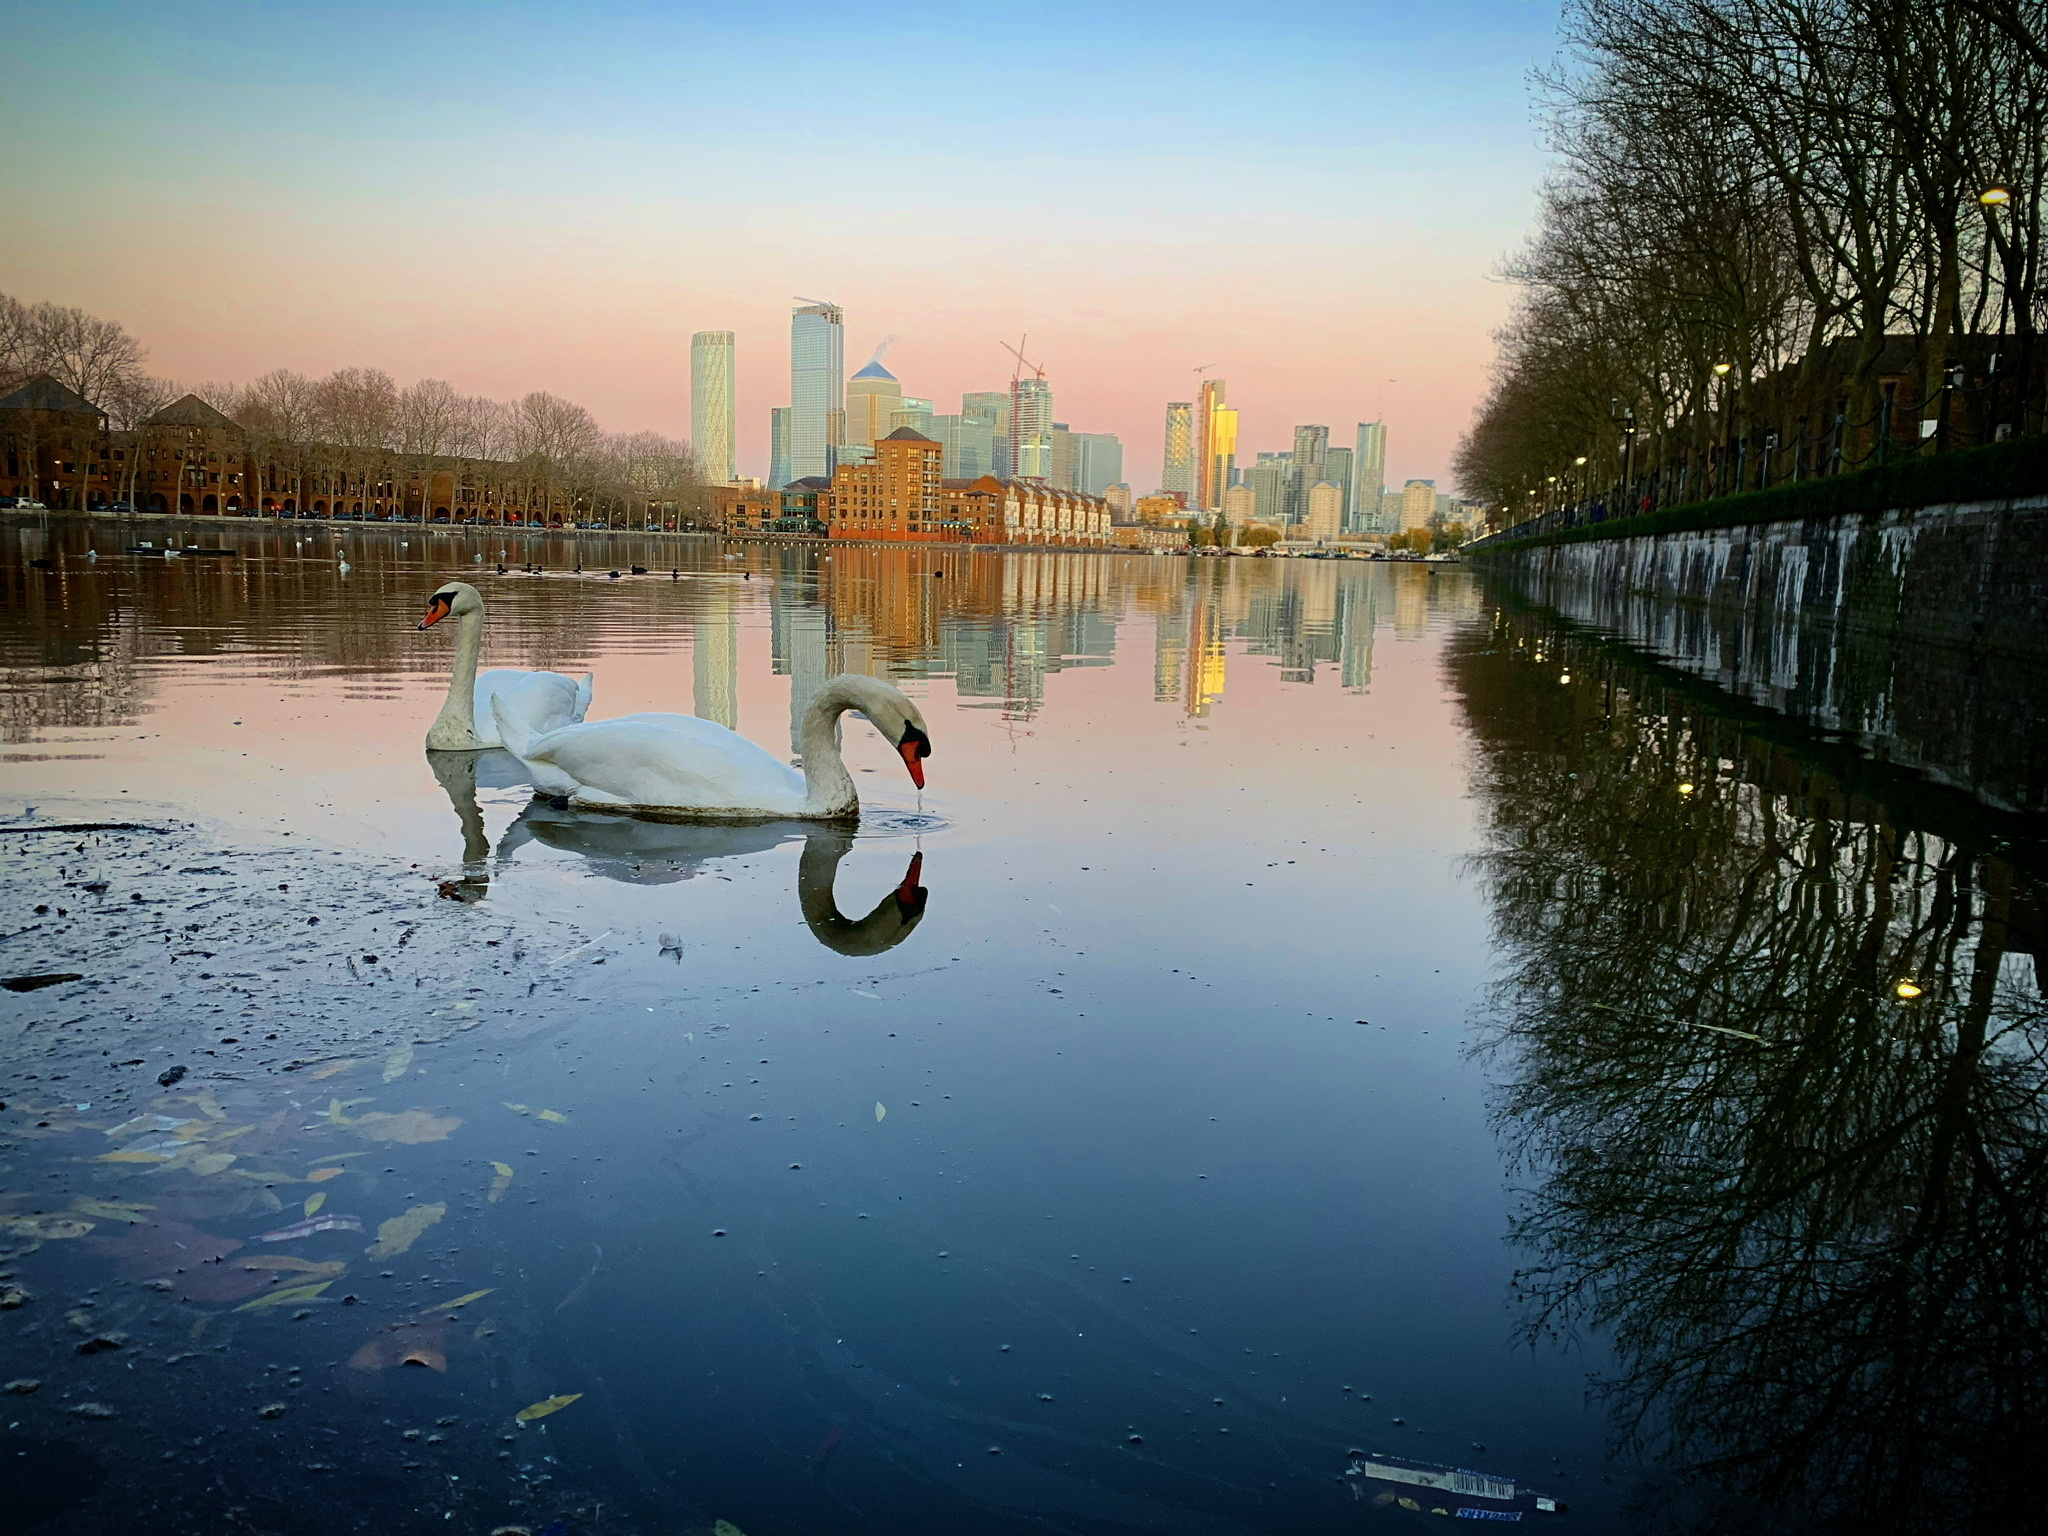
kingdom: Animalia
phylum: Chordata
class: Aves
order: Anseriformes
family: Anatidae
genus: Cygnus
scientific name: Cygnus olor
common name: Mute swan
